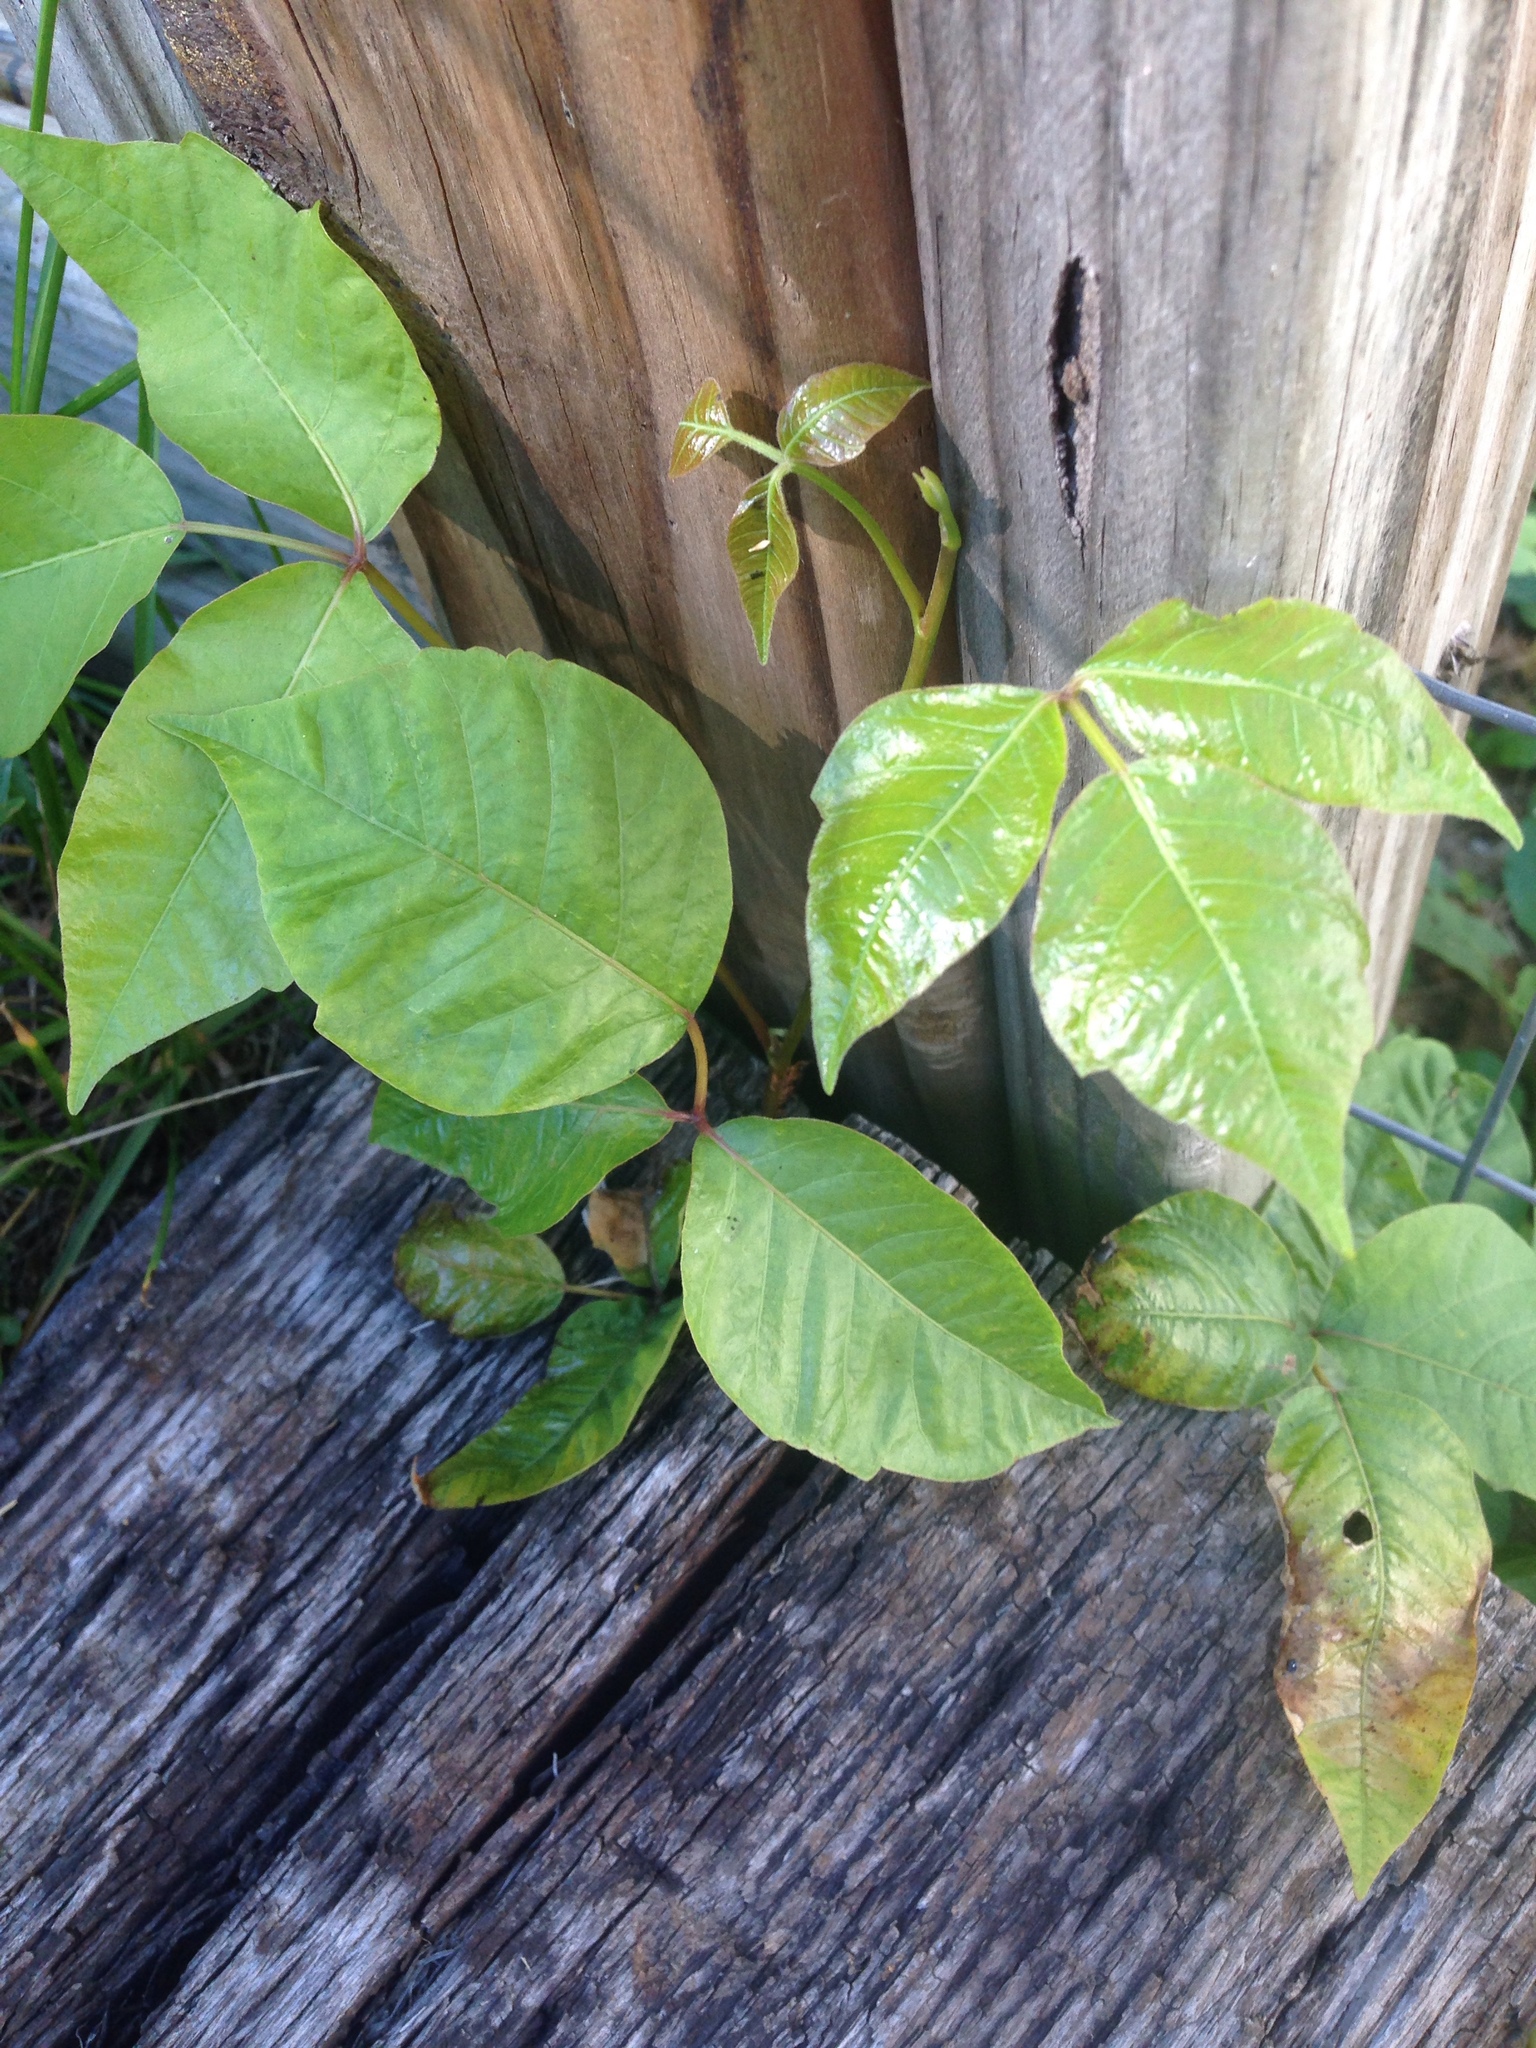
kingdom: Plantae
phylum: Tracheophyta
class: Magnoliopsida
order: Sapindales
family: Anacardiaceae
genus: Toxicodendron
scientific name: Toxicodendron radicans
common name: Poison ivy
